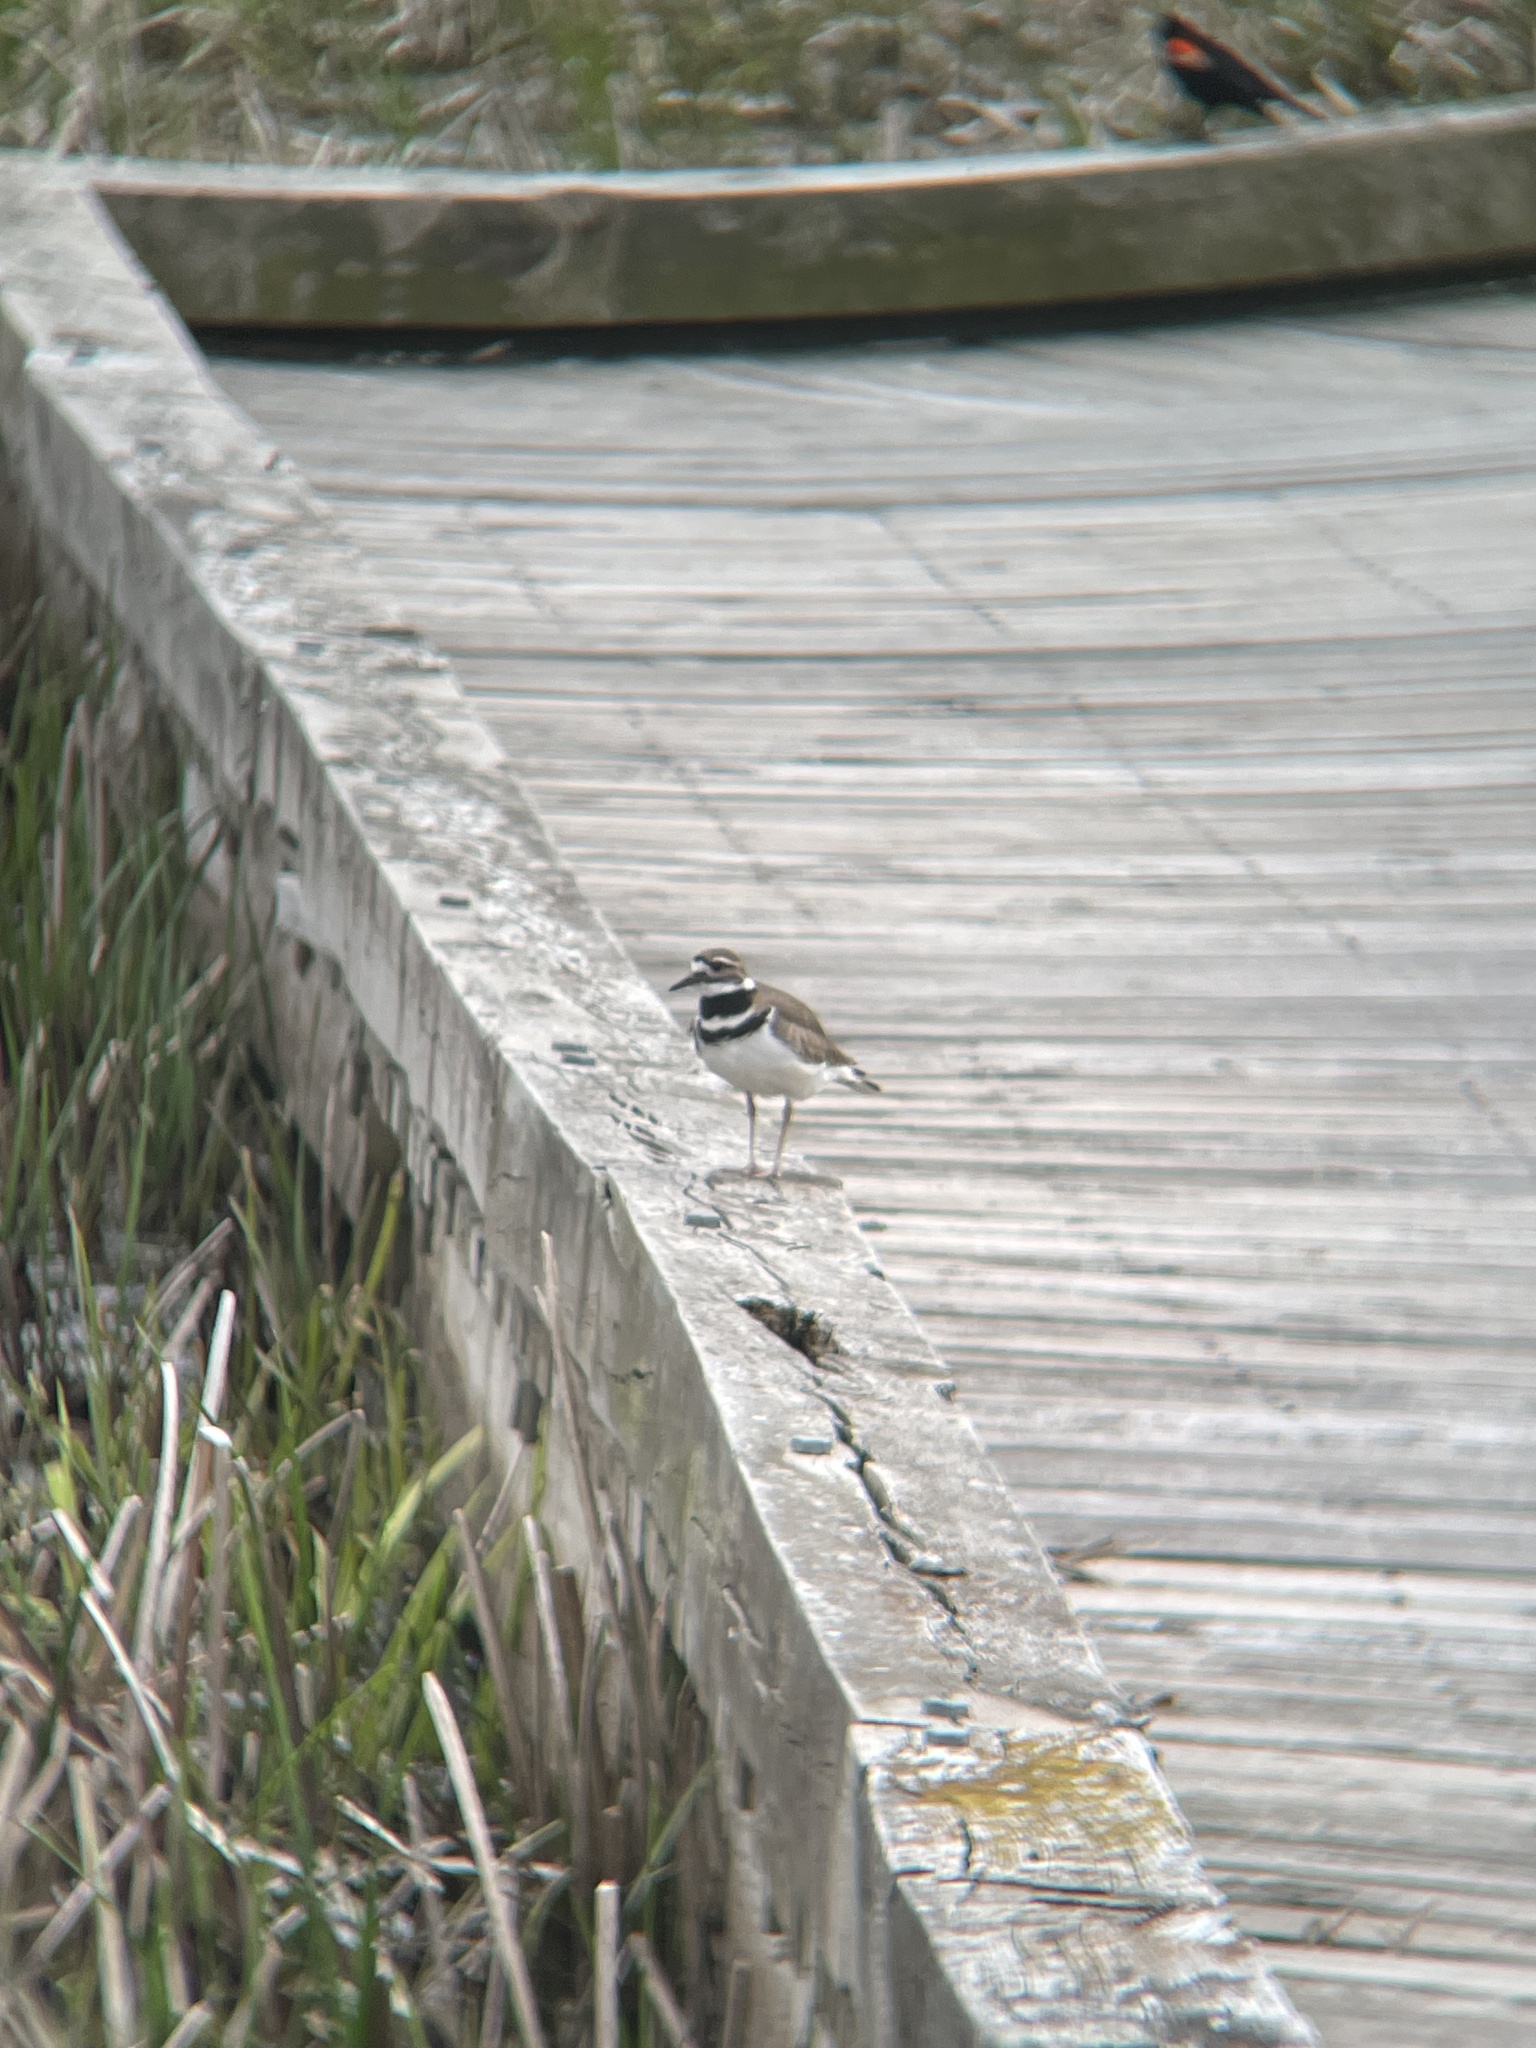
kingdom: Animalia
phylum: Chordata
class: Aves
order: Charadriiformes
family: Charadriidae
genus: Charadrius
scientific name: Charadrius vociferus
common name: Killdeer
